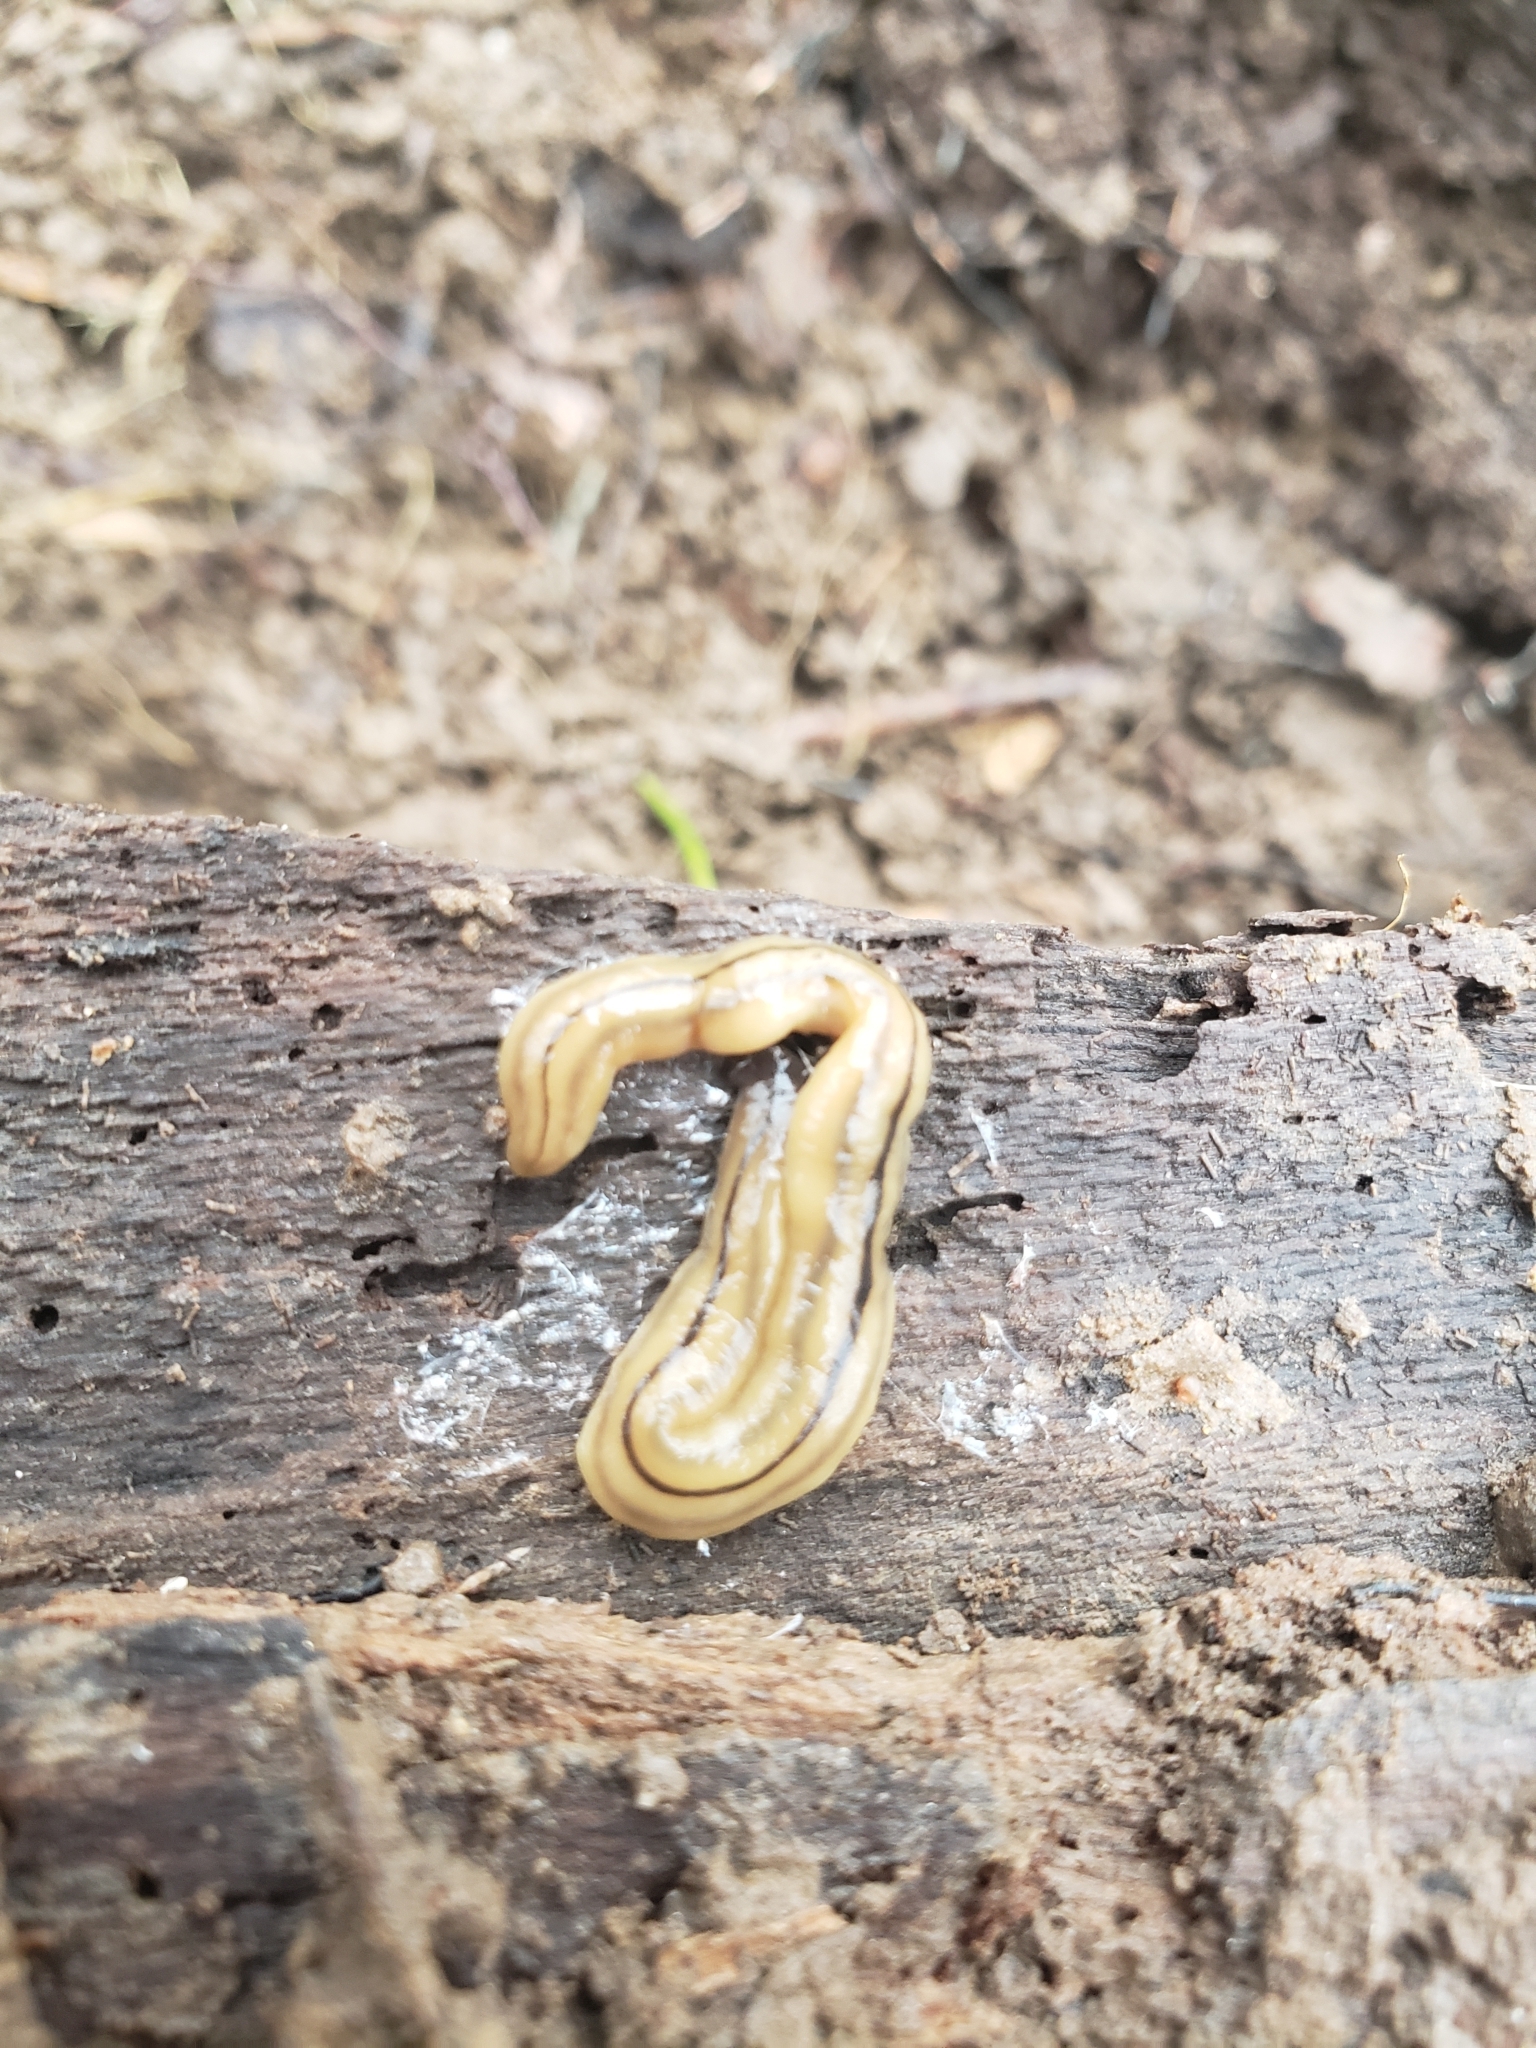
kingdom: Animalia
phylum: Platyhelminthes
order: Tricladida
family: Geoplanidae
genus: Bipalium
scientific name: Bipalium pennsylvanicum
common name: Three-lined land planarian
